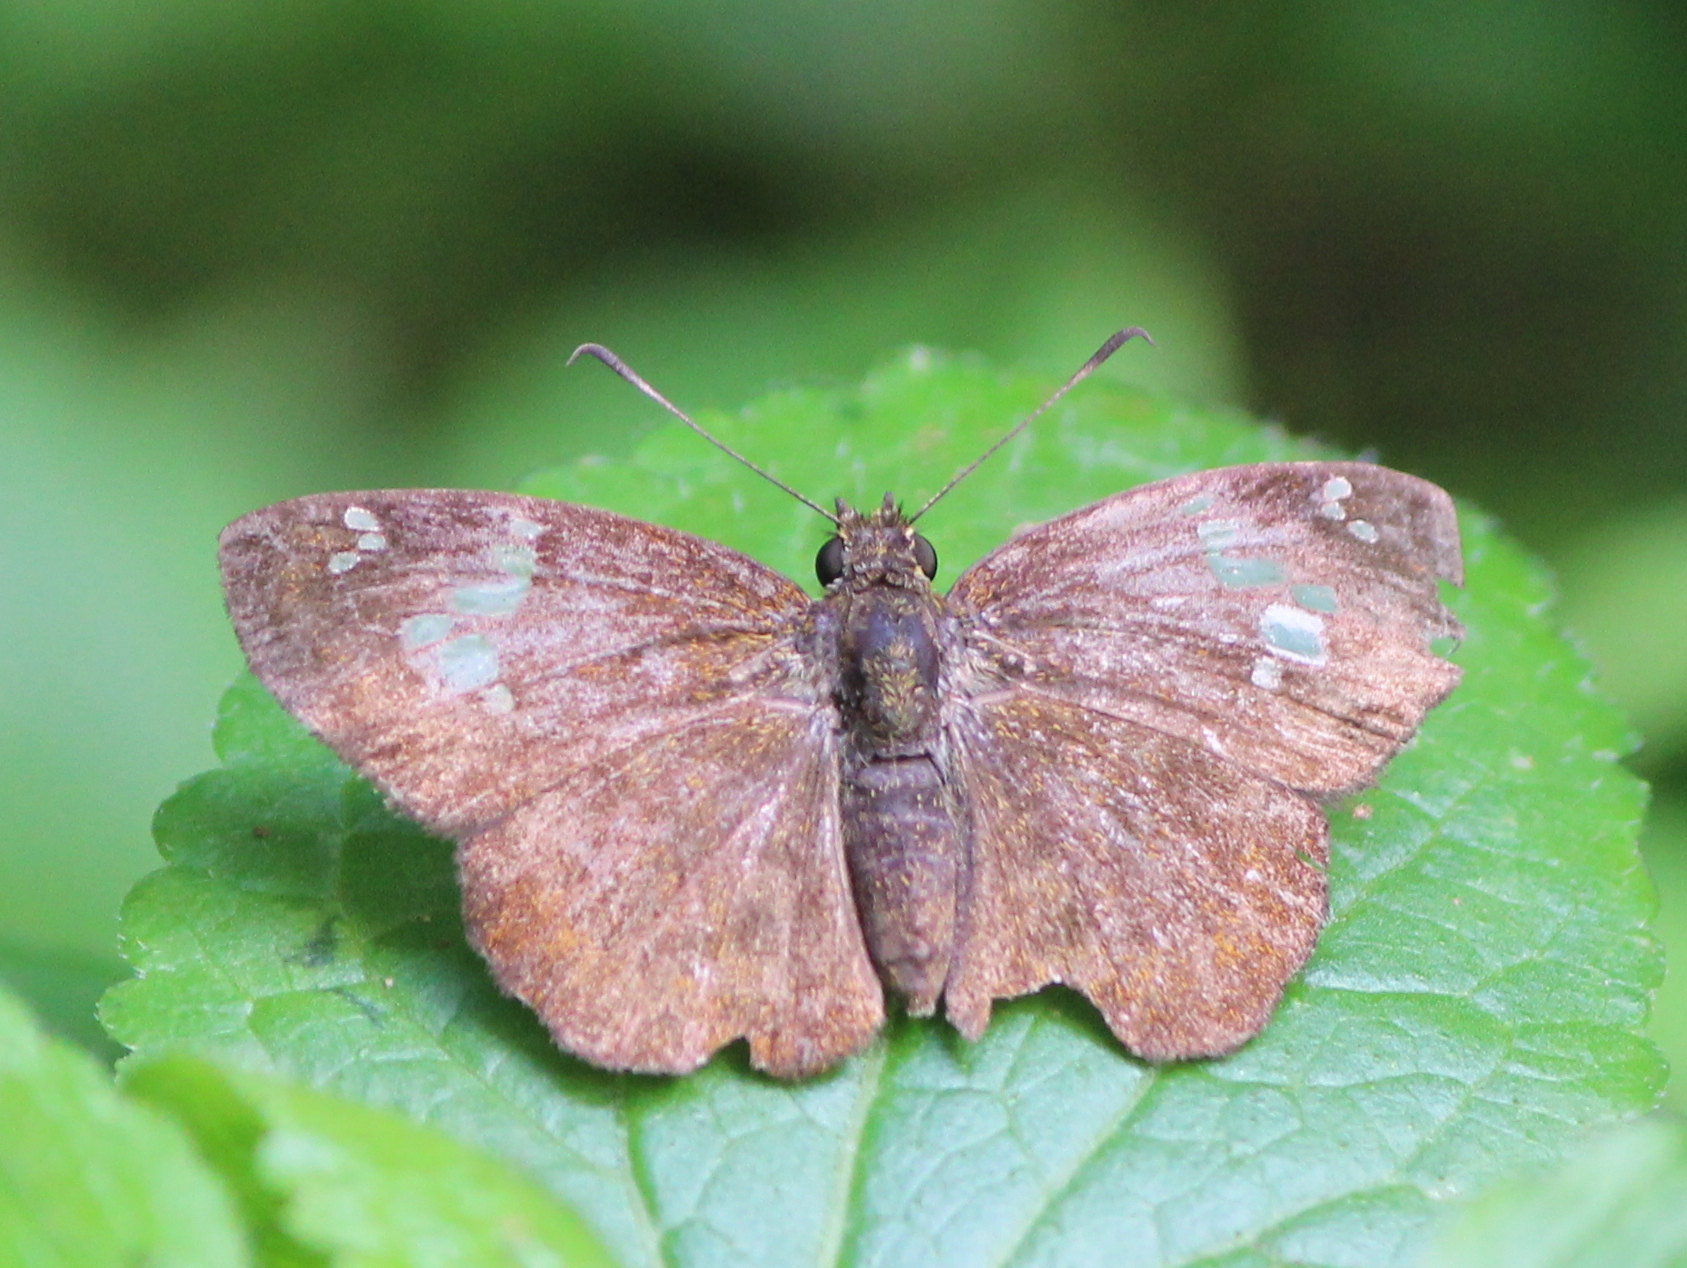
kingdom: Animalia
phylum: Arthropoda
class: Insecta
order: Lepidoptera
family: Hesperiidae
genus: Pseudocoladenia
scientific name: Pseudocoladenia dan
